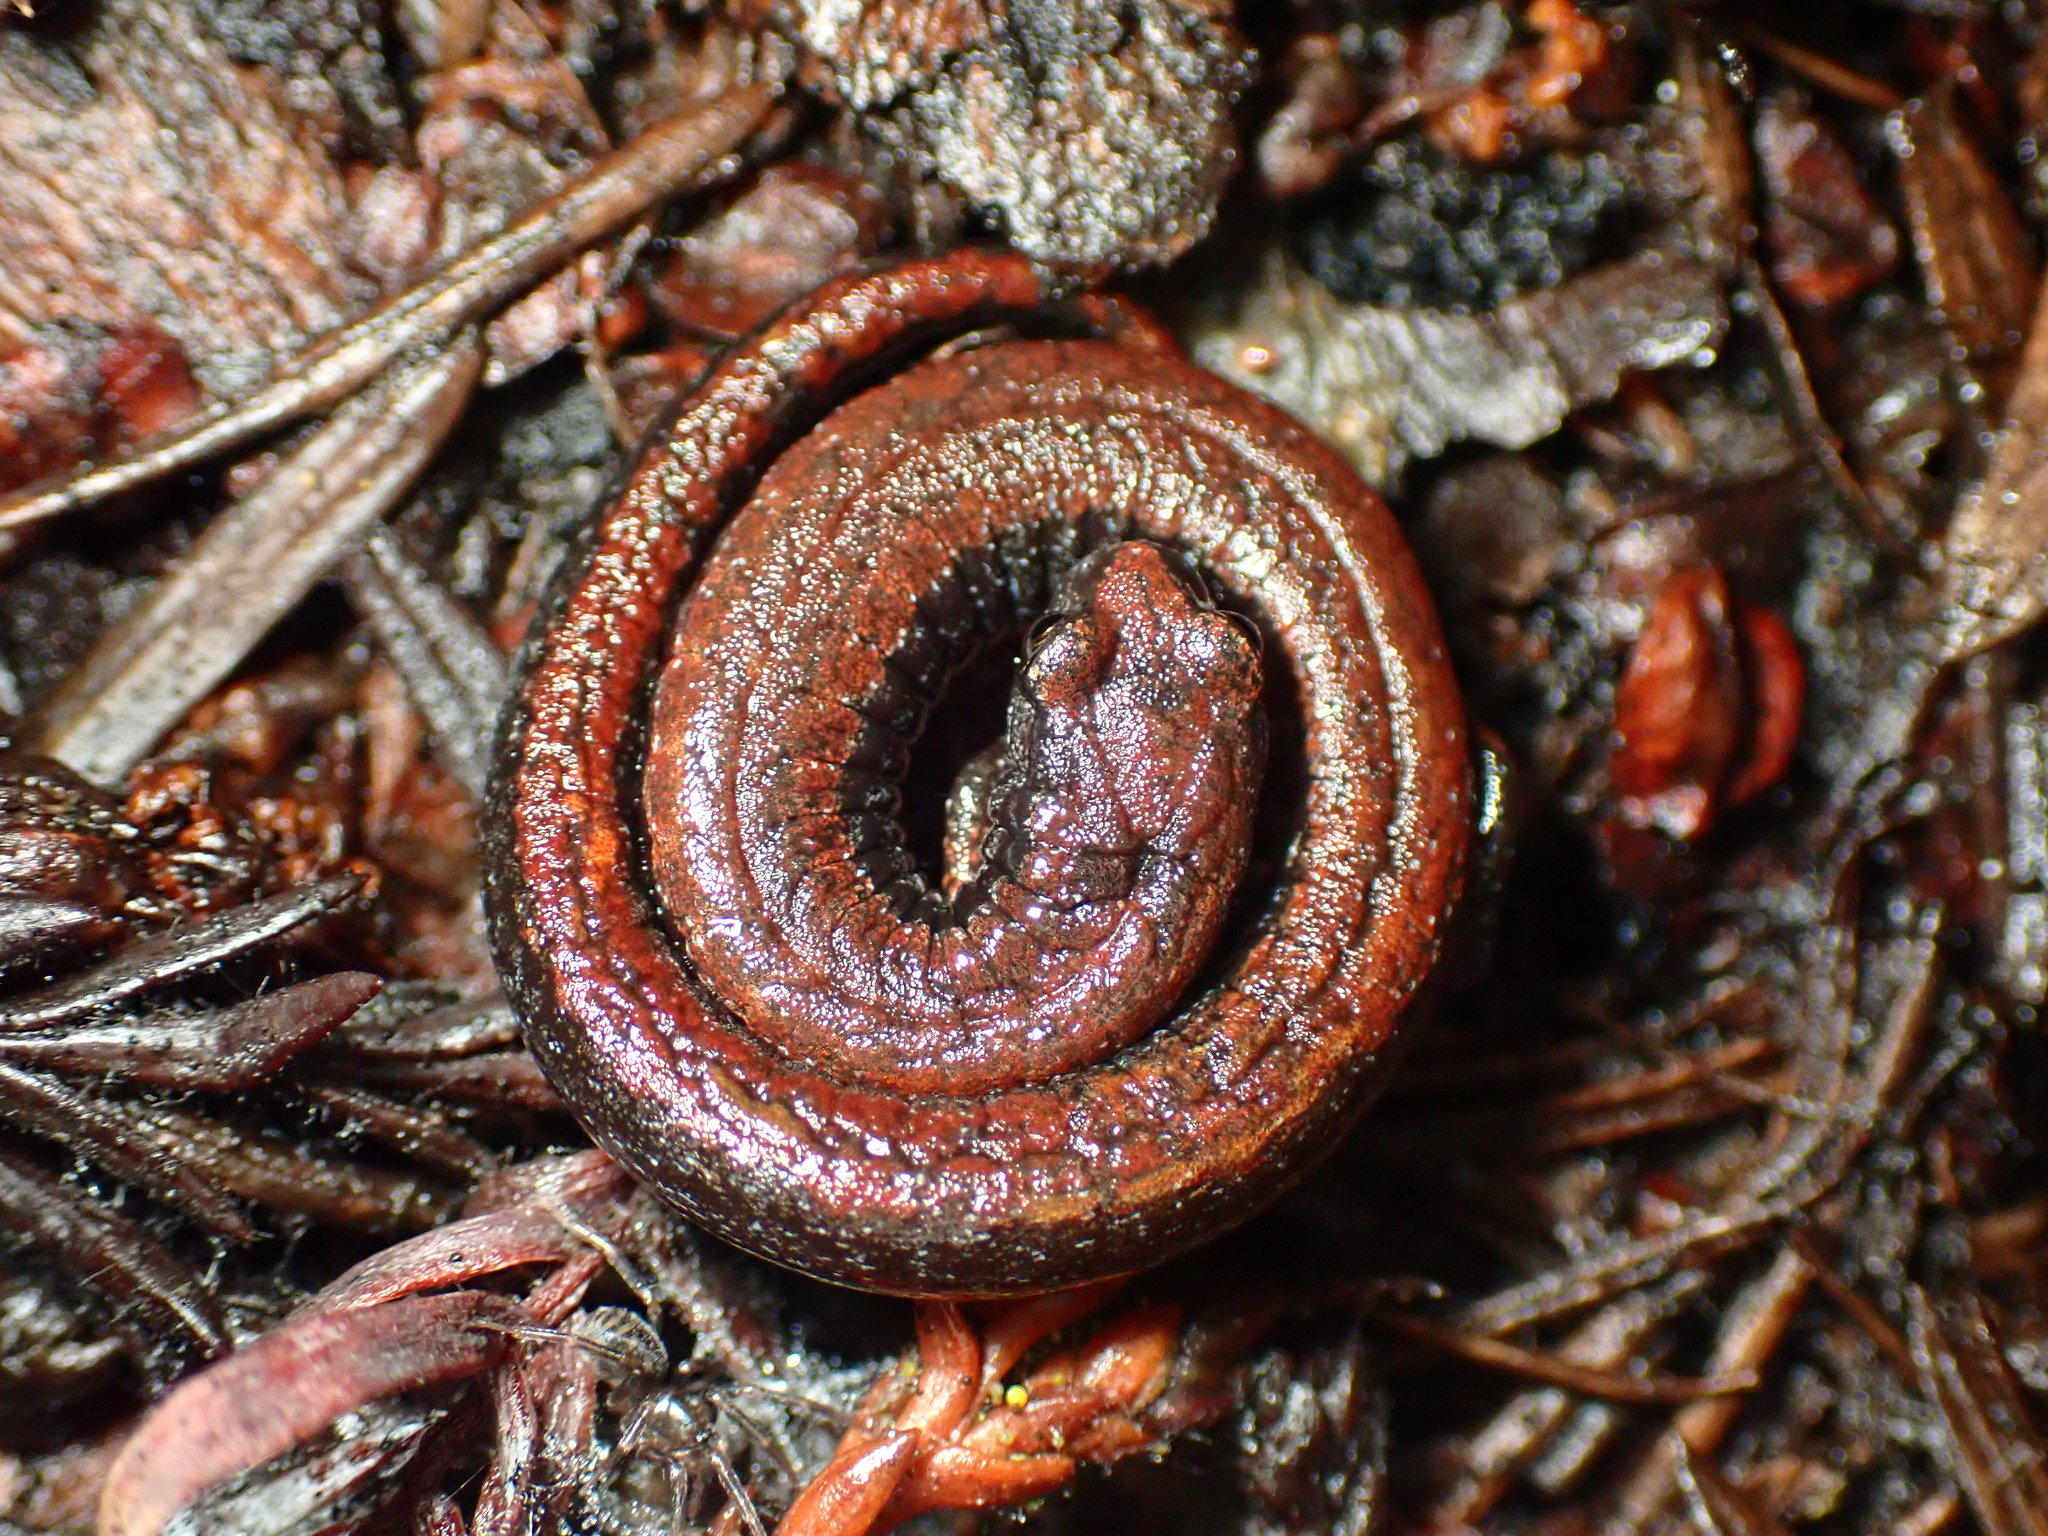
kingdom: Animalia
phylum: Chordata
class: Amphibia
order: Caudata
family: Plethodontidae
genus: Batrachoseps
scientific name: Batrachoseps attenuatus
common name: California slender salamander
